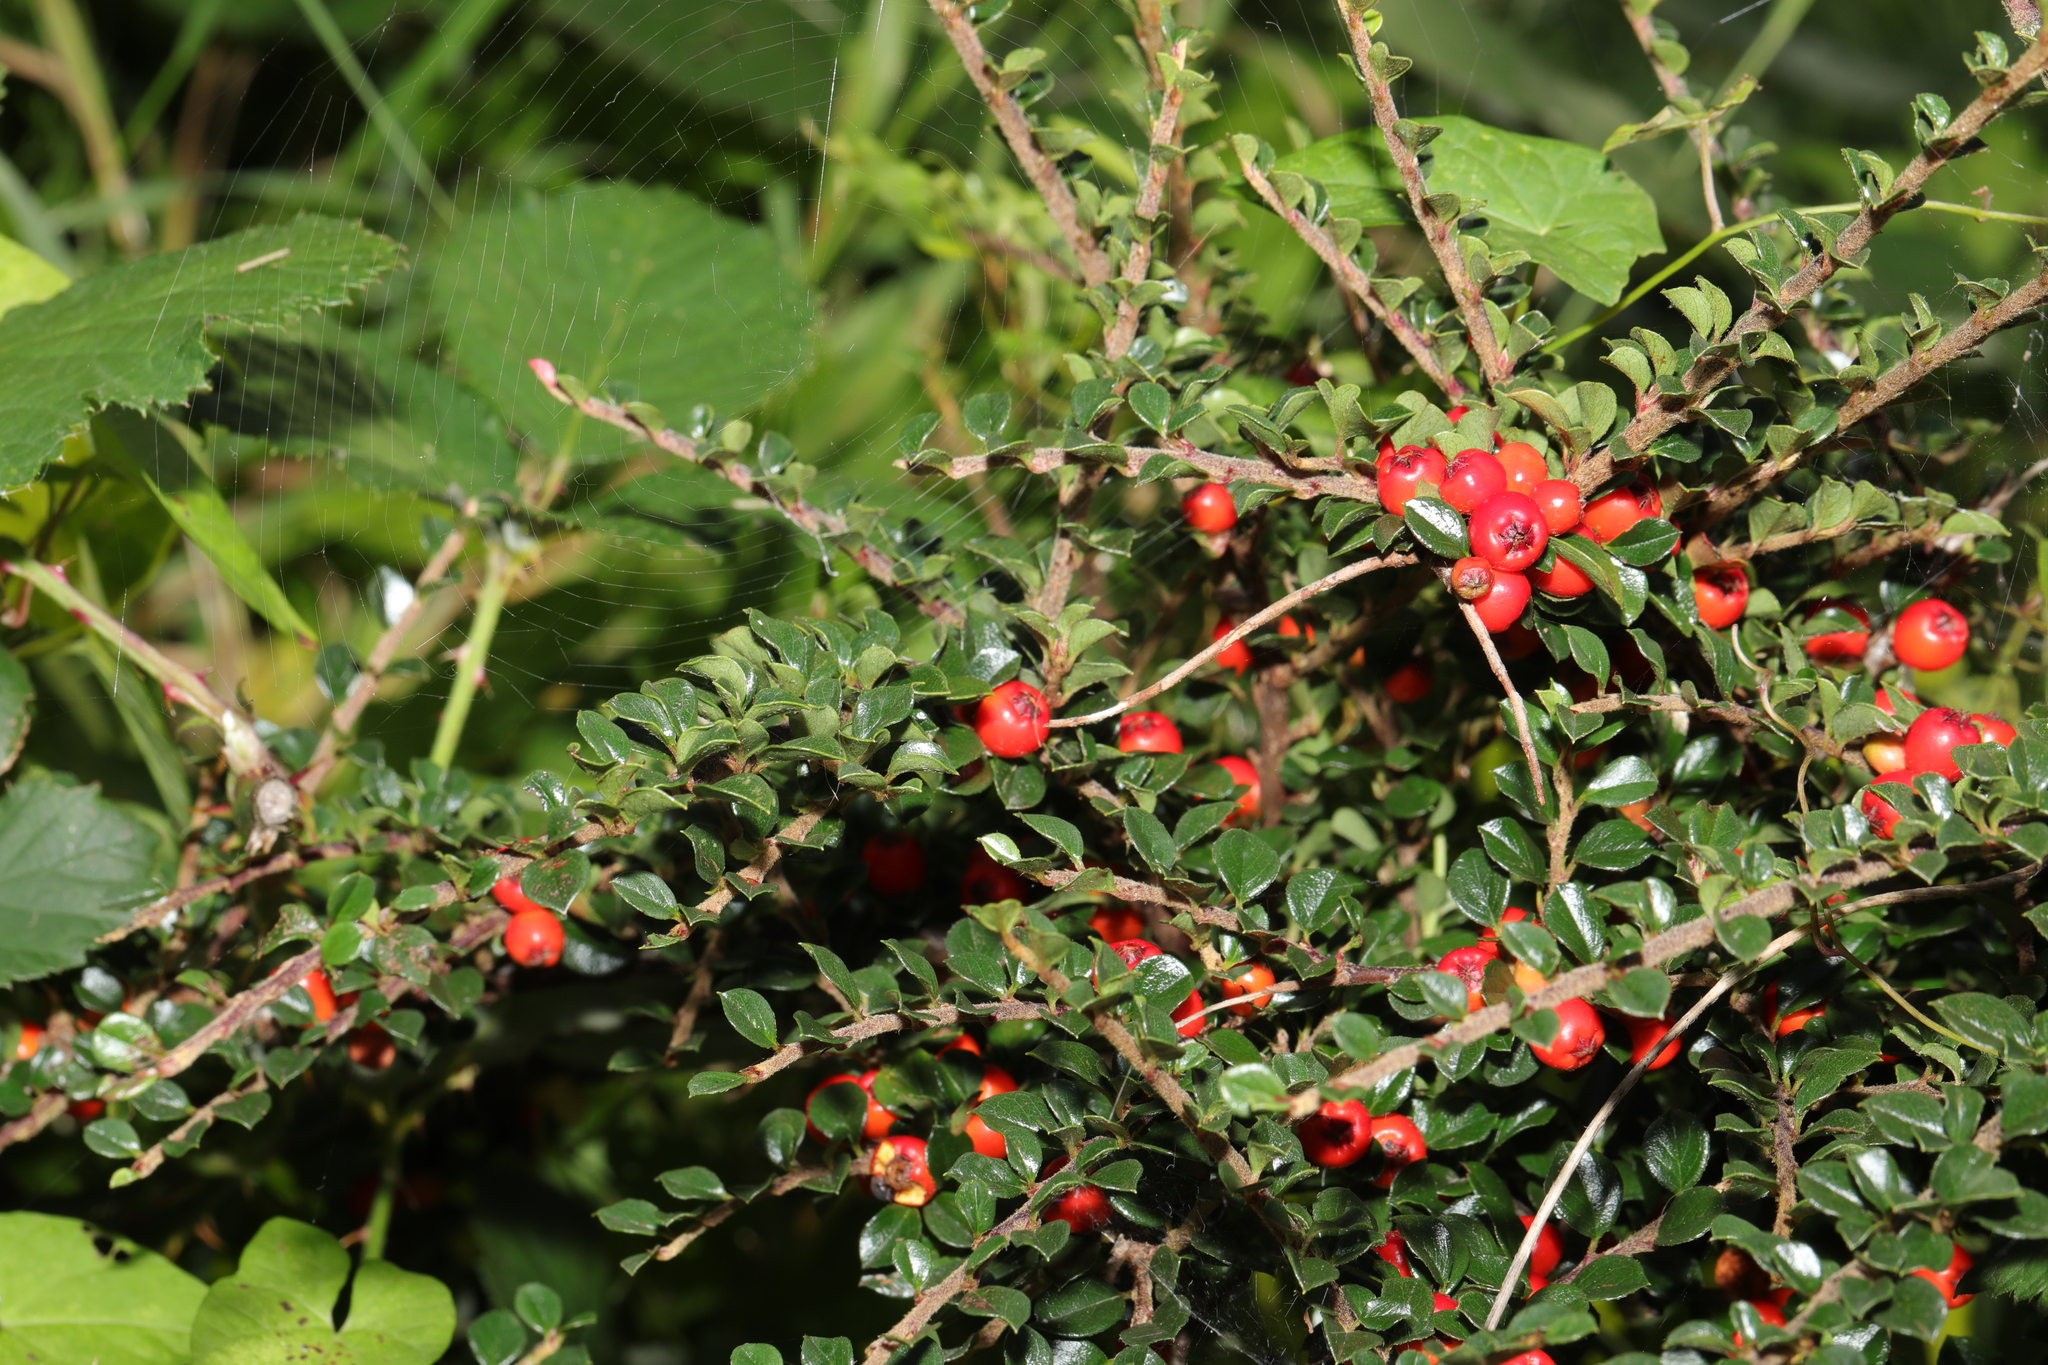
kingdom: Plantae
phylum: Tracheophyta
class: Magnoliopsida
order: Rosales
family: Rosaceae
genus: Cotoneaster
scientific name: Cotoneaster horizontalis
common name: Wall cotoneaster
